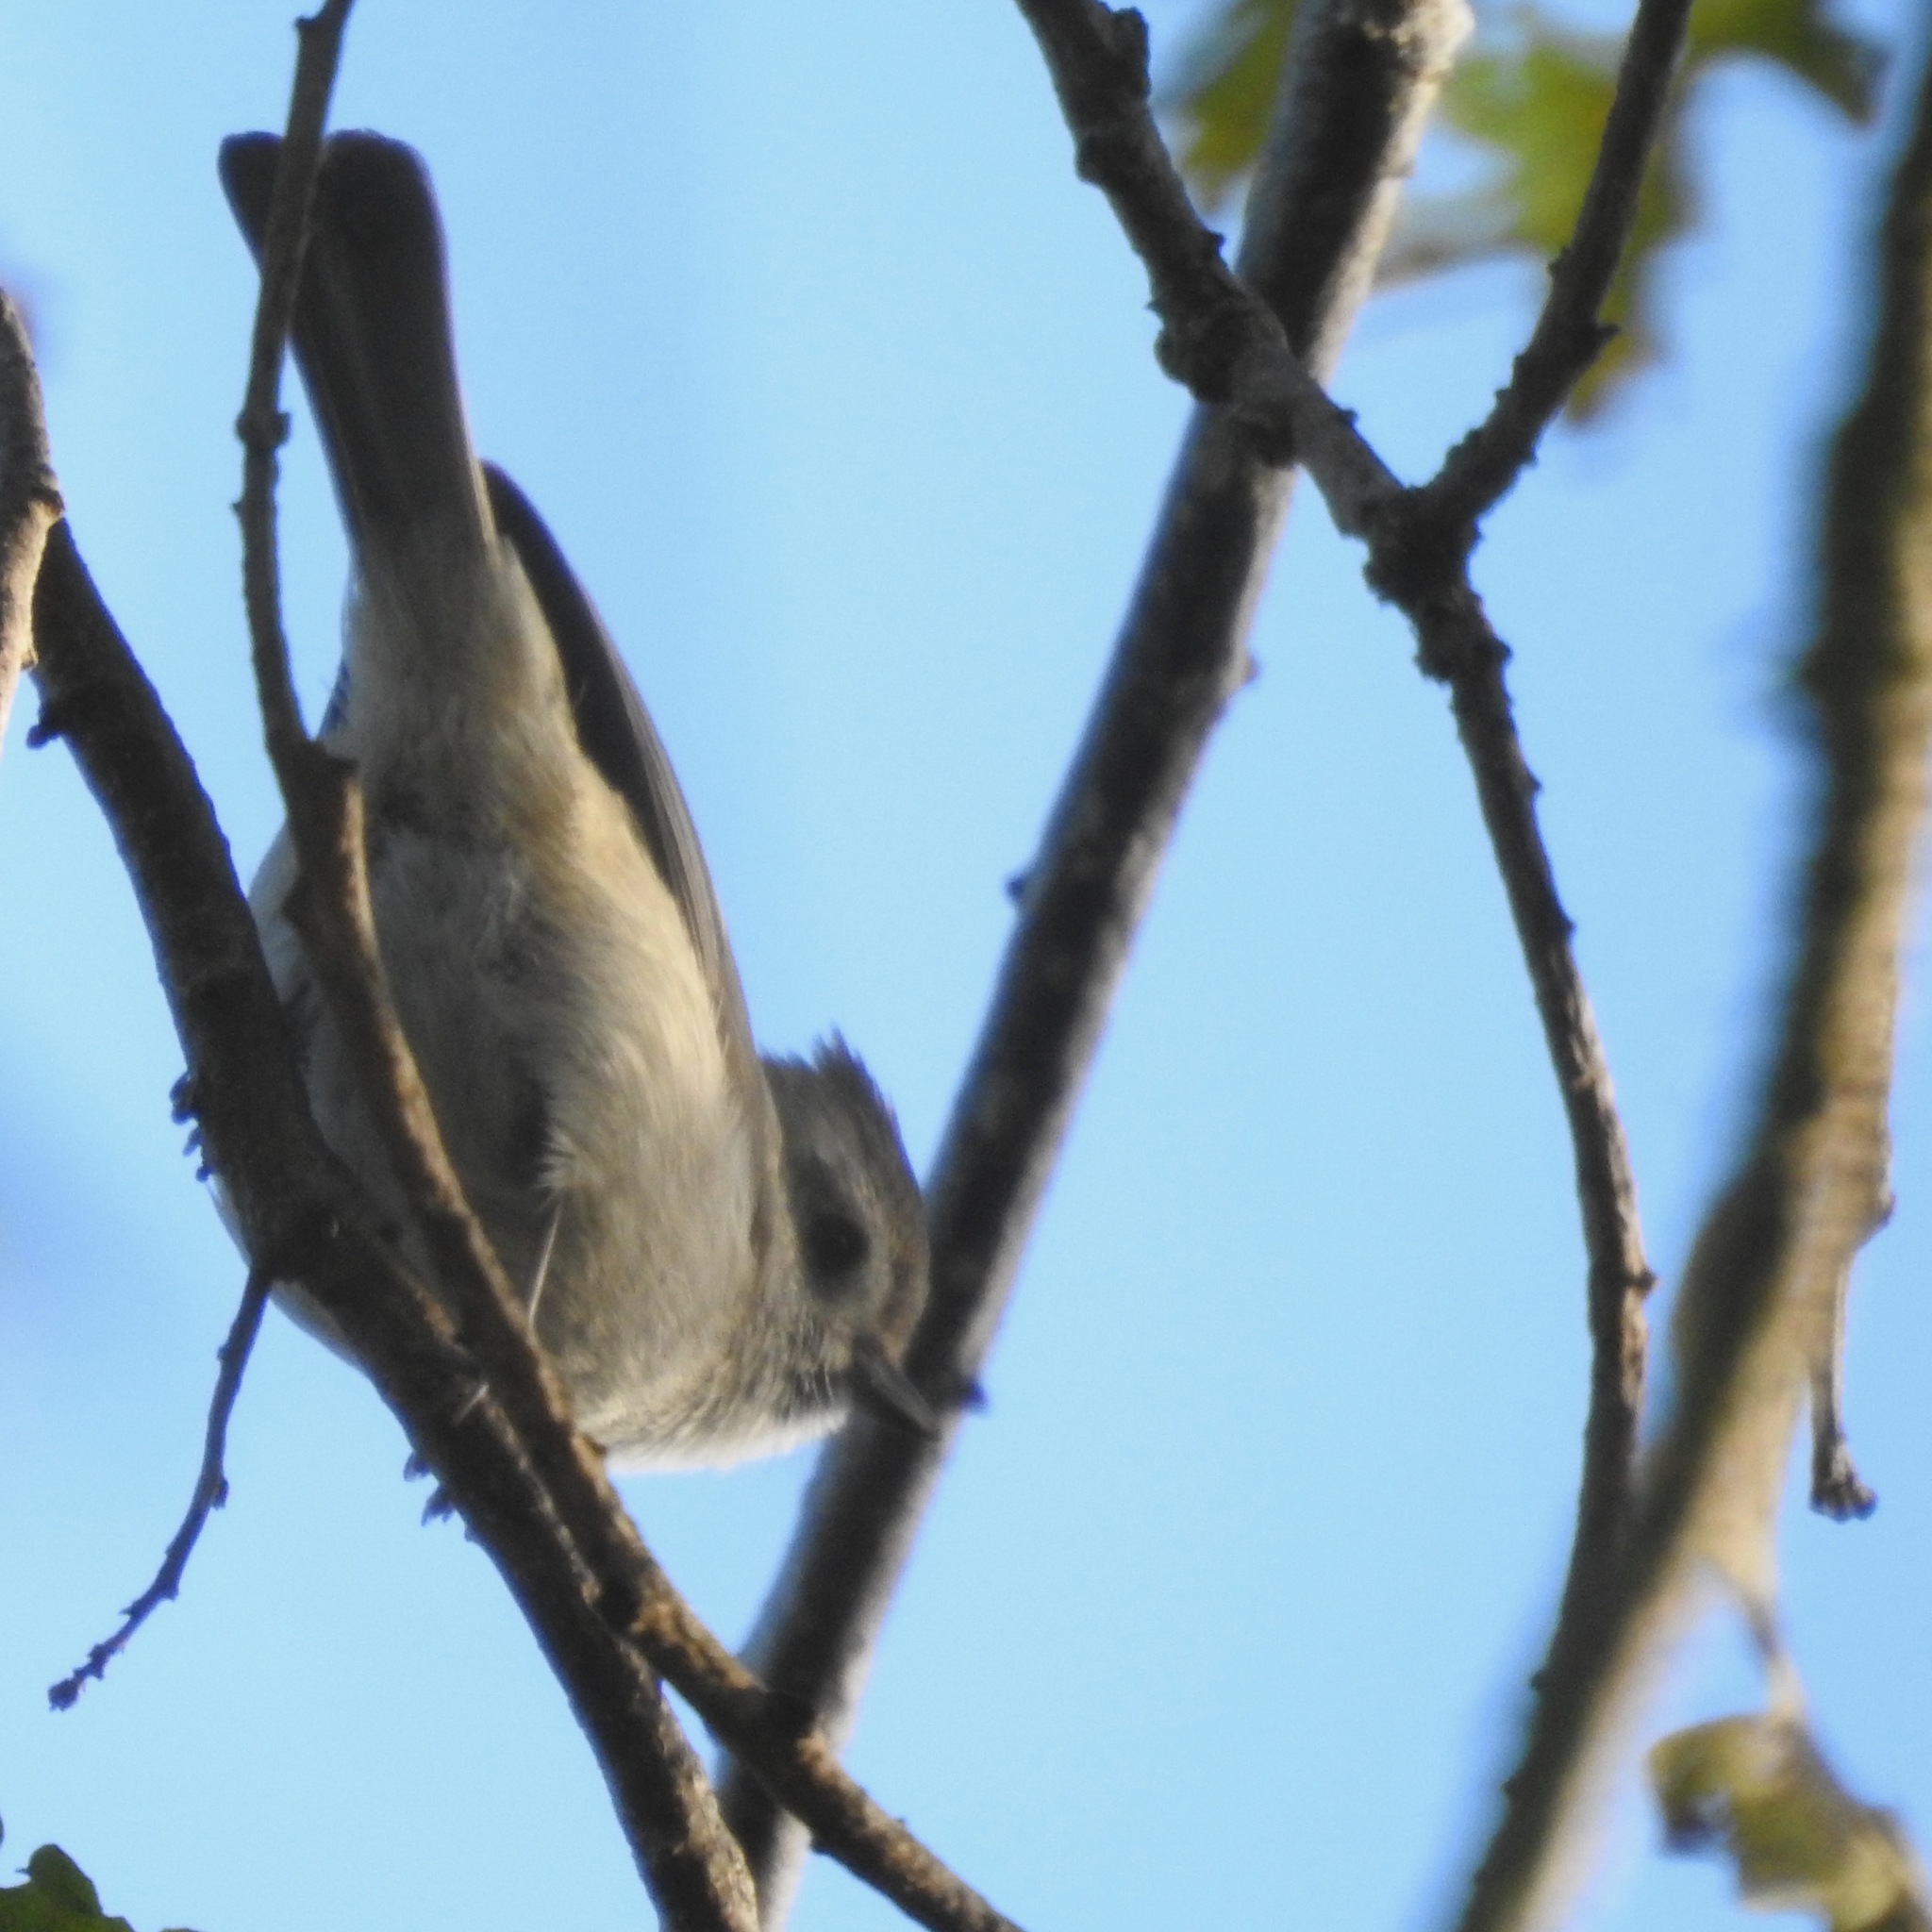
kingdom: Animalia
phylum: Chordata
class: Aves
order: Passeriformes
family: Paridae
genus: Baeolophus
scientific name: Baeolophus inornatus
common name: Oak titmouse
